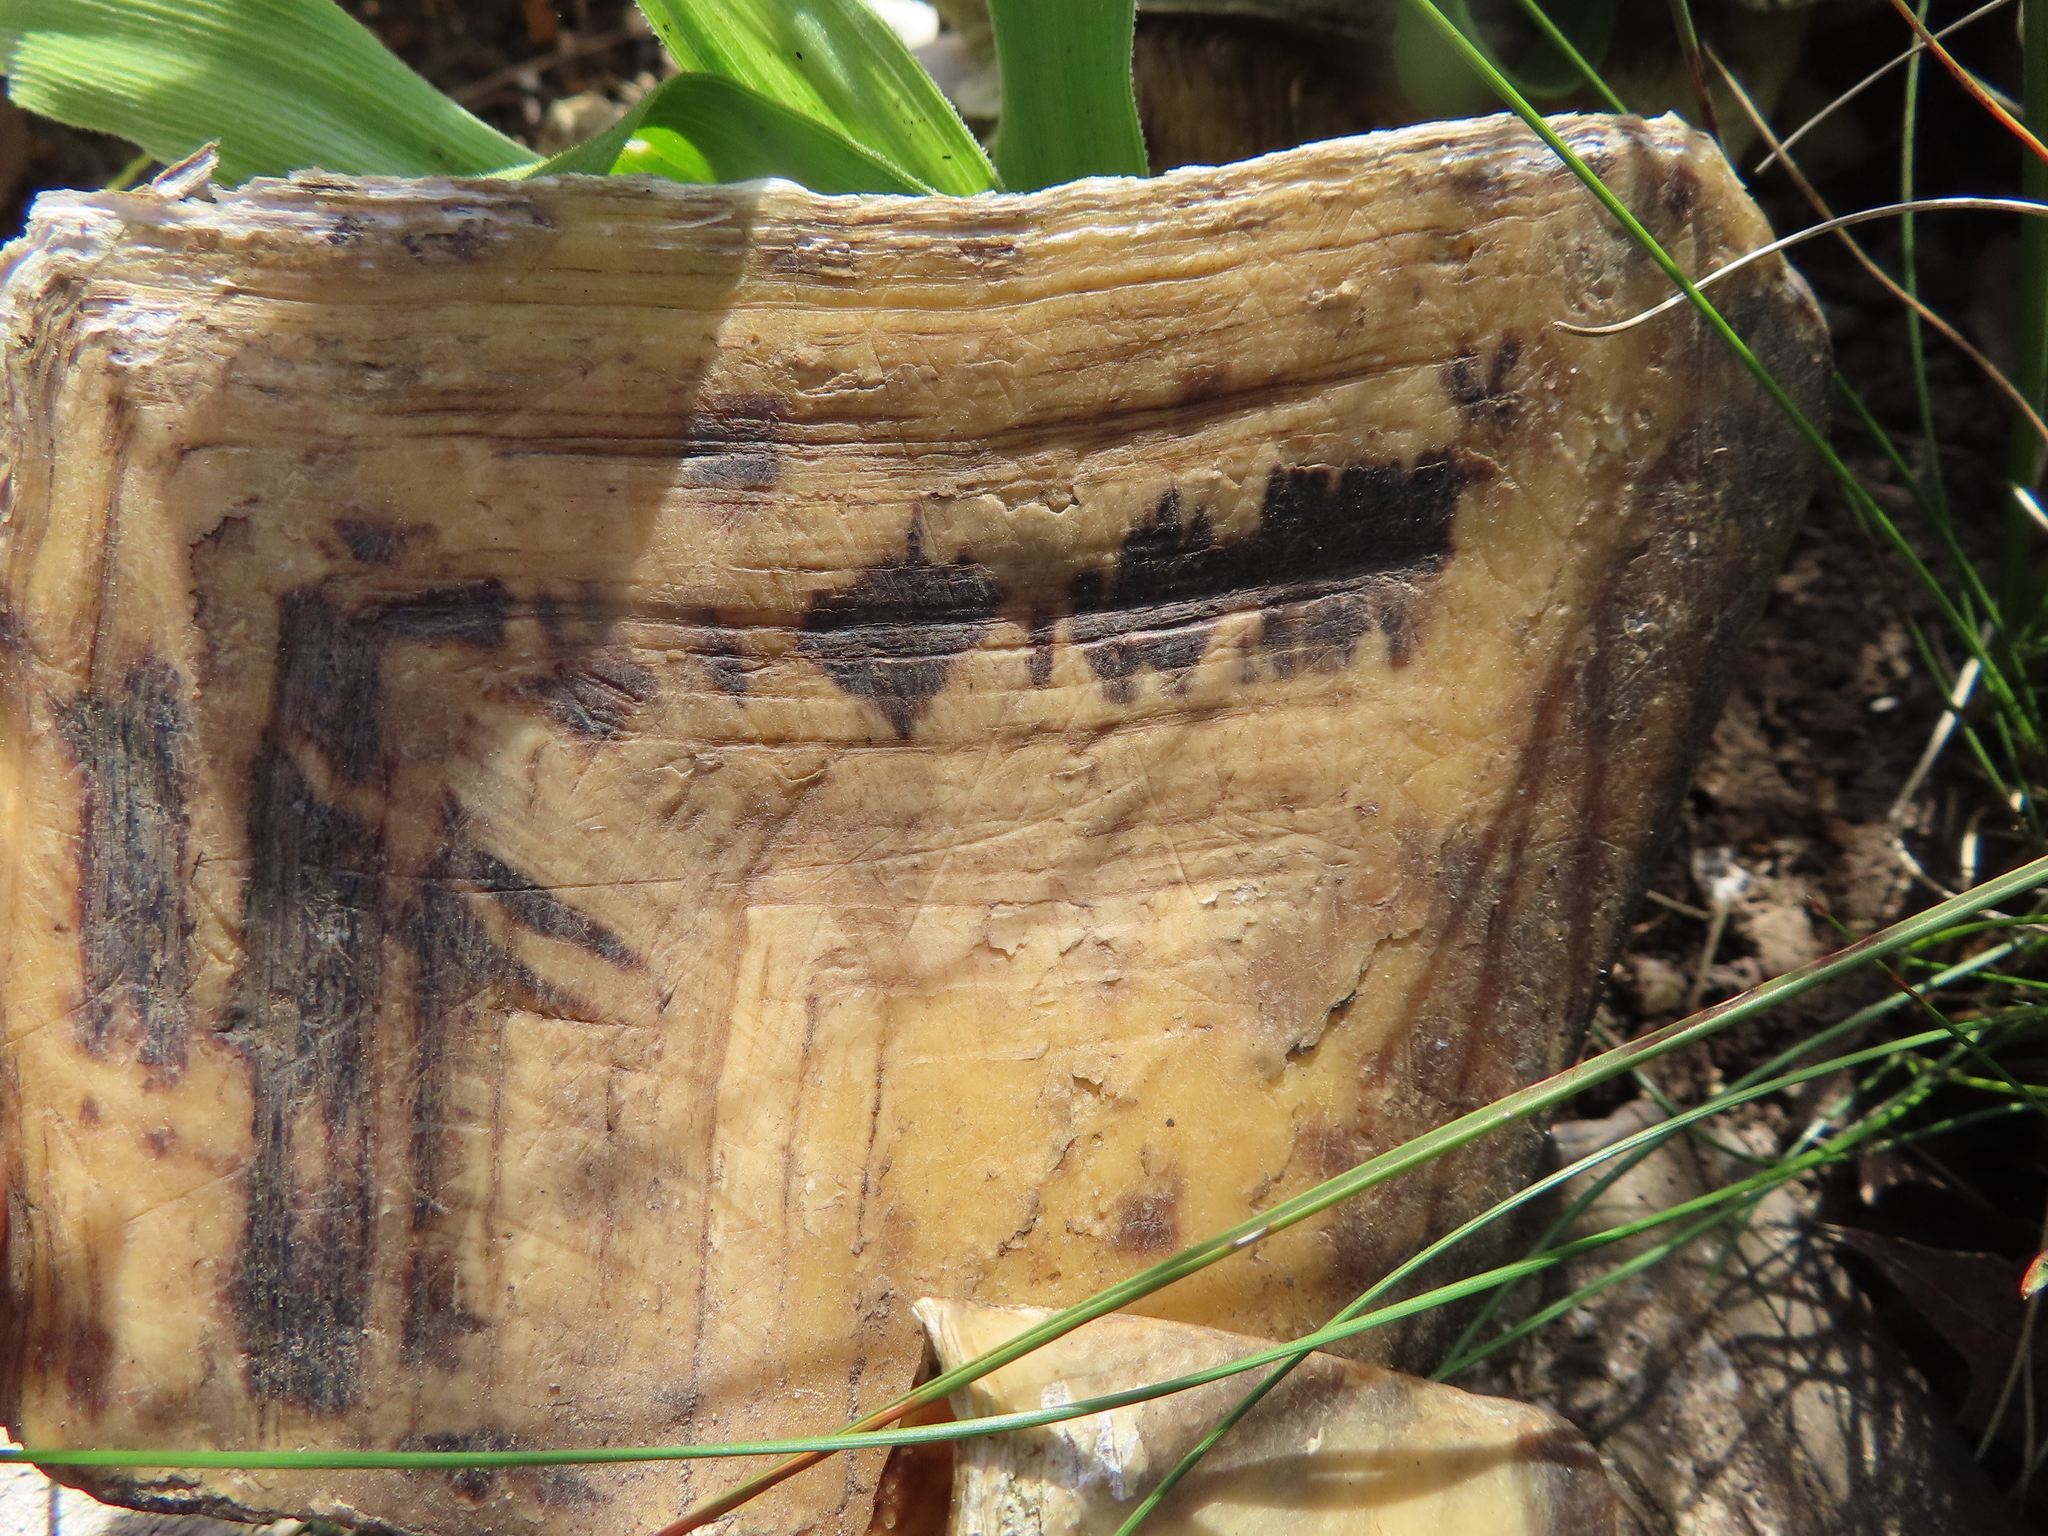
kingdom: Animalia
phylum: Chordata
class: Testudines
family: Testudinidae
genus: Stigmochelys
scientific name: Stigmochelys pardalis
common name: Leopard tortoise
